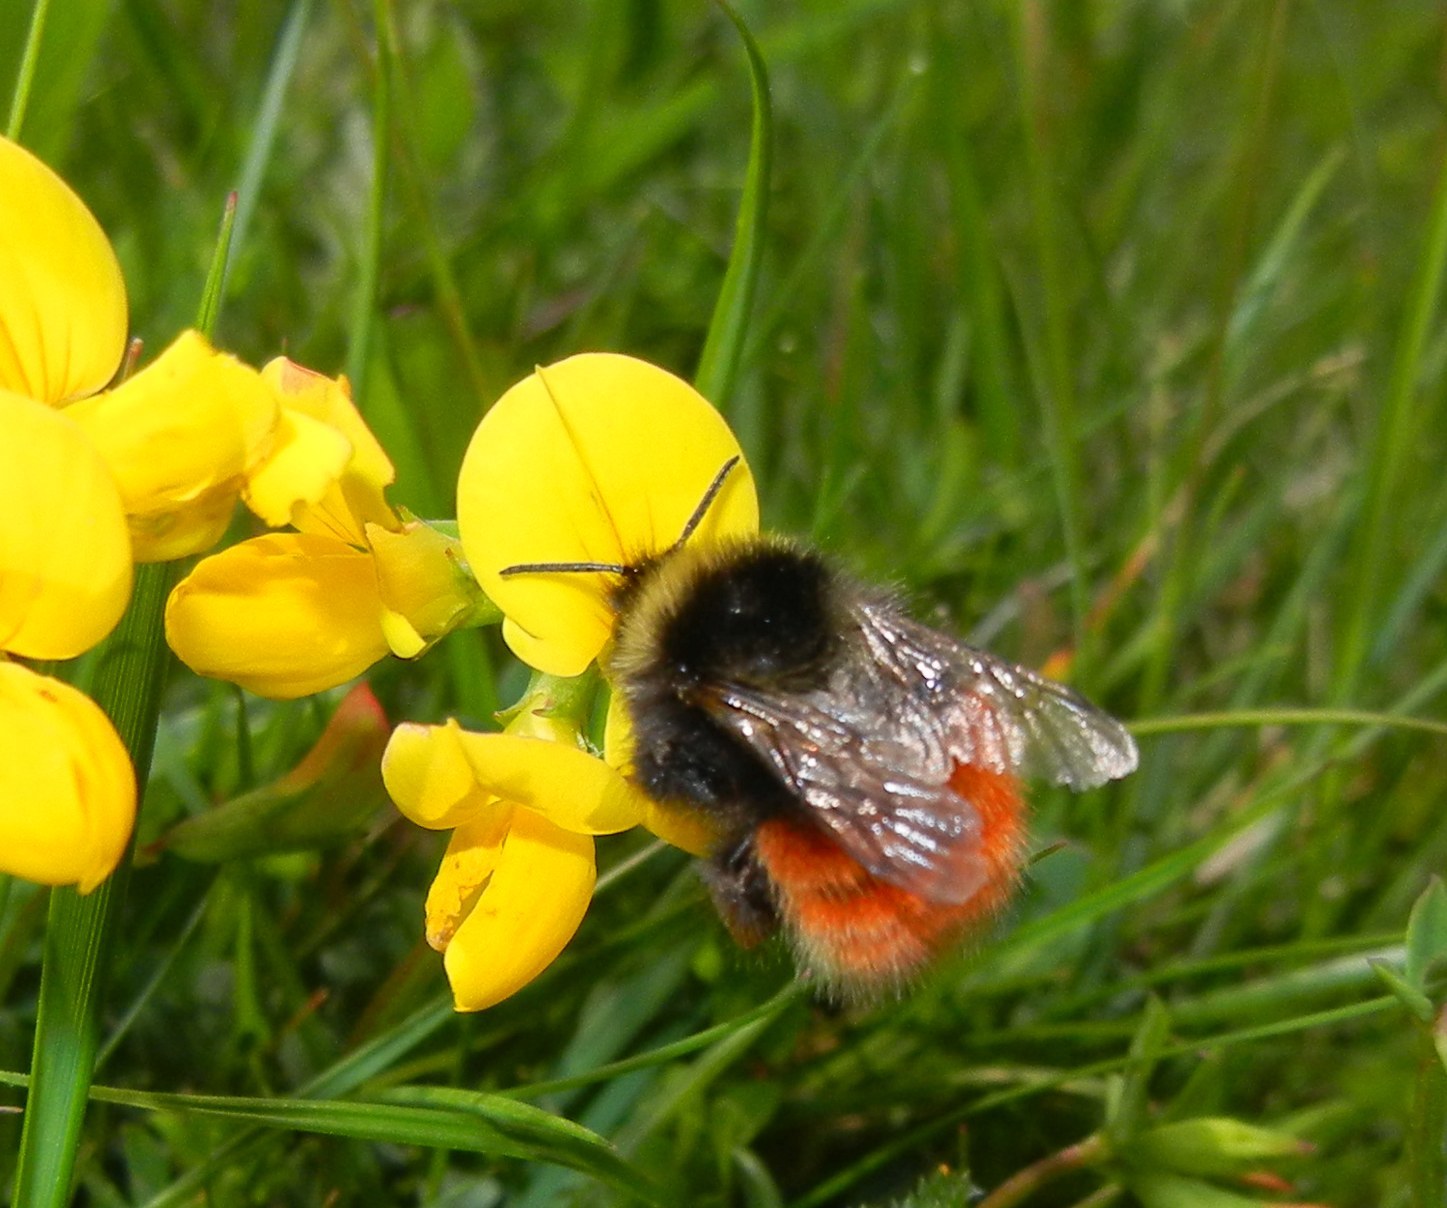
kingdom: Animalia
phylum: Arthropoda
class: Insecta
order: Hymenoptera
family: Apidae
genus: Bombus
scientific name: Bombus monticola
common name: Bilberry humble-bee
